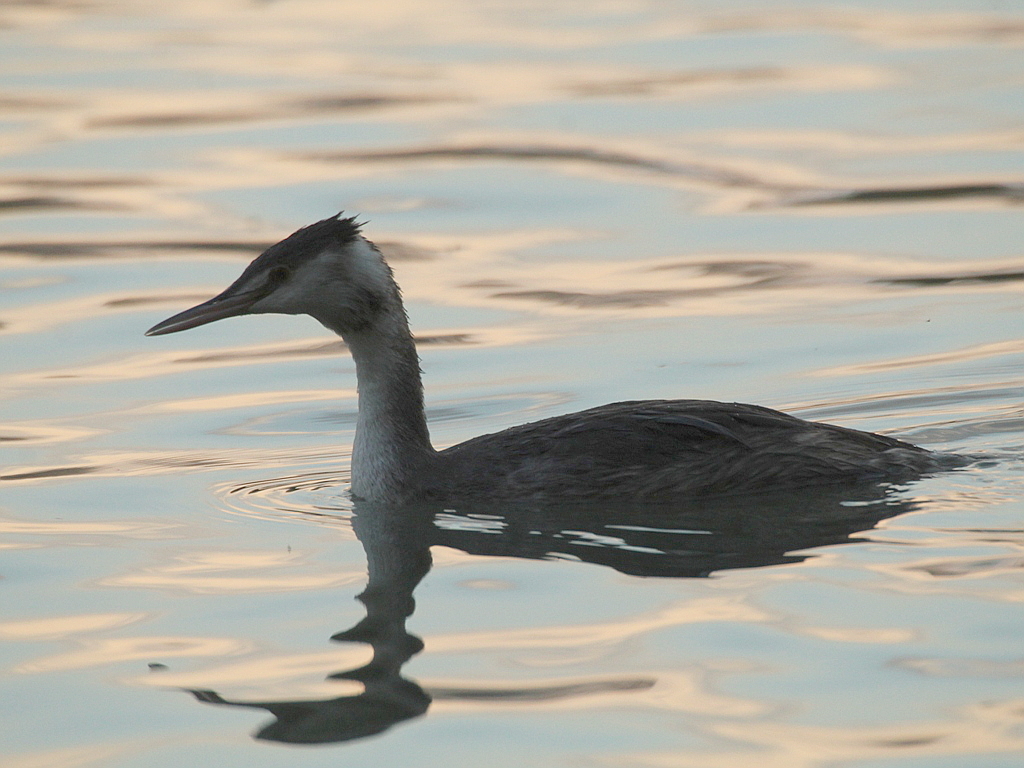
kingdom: Animalia
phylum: Chordata
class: Aves
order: Podicipediformes
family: Podicipedidae
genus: Podiceps
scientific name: Podiceps cristatus
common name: Great crested grebe
